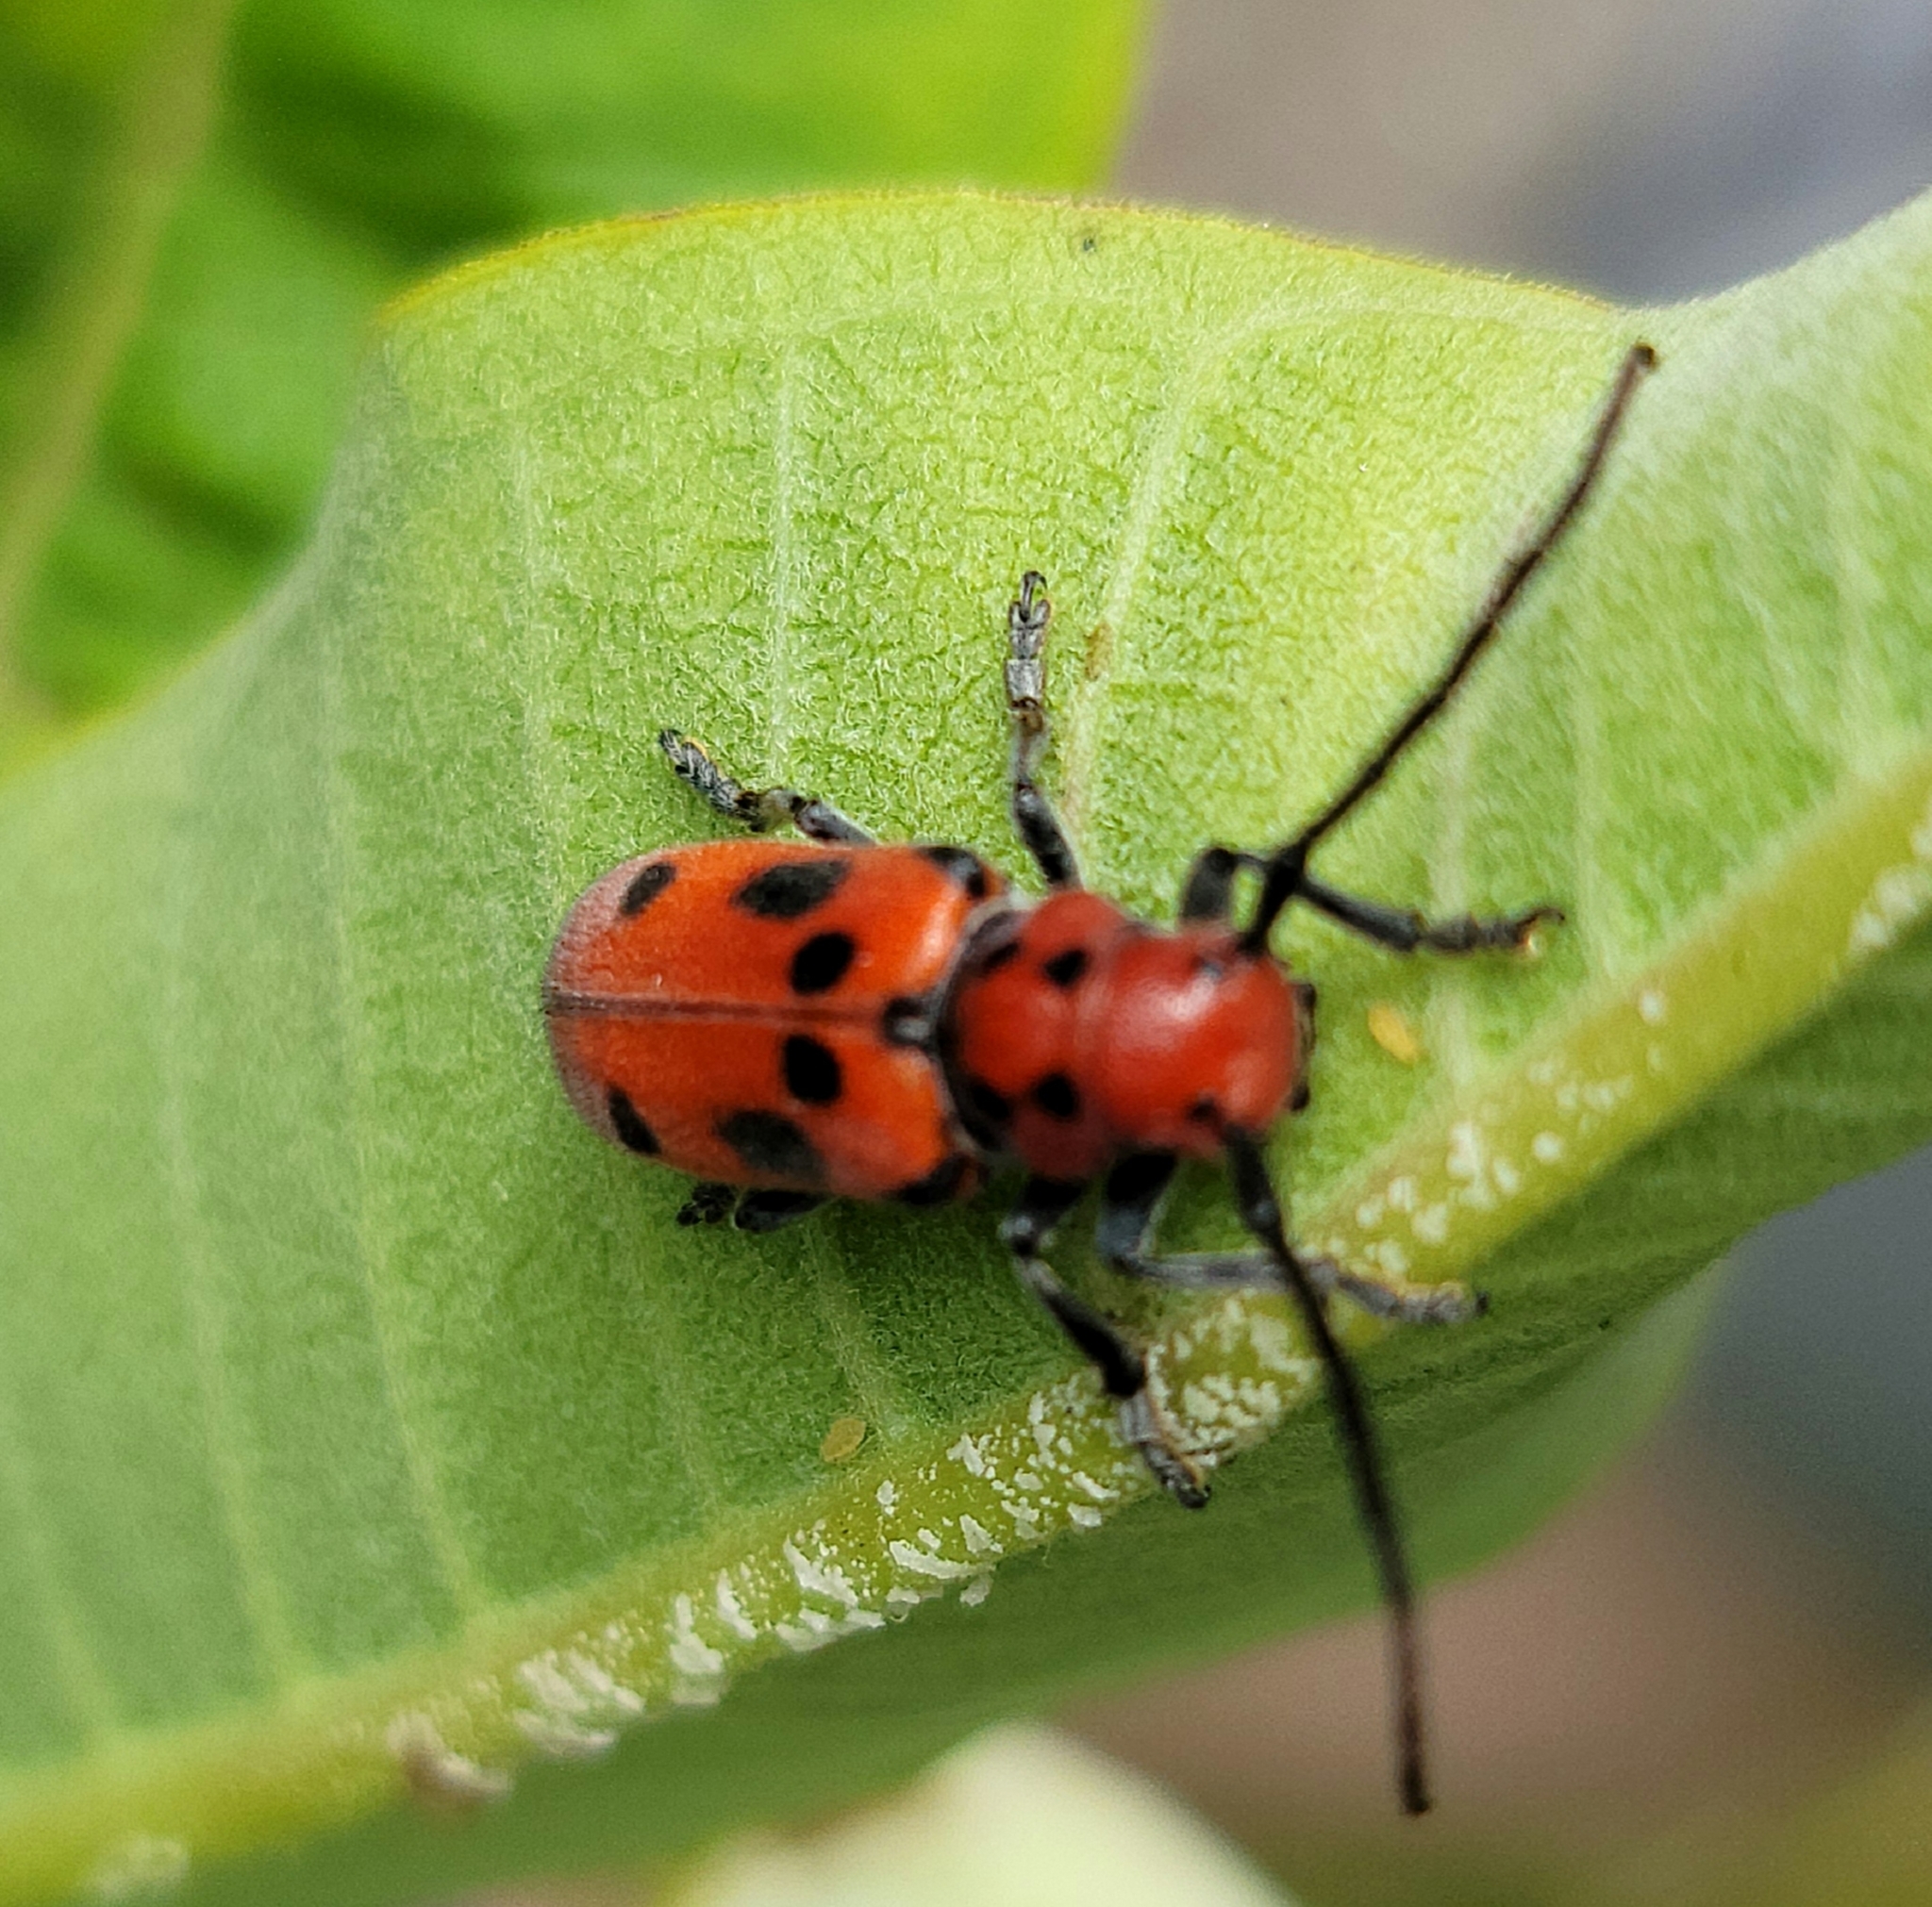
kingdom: Animalia
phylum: Arthropoda
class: Insecta
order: Coleoptera
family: Cerambycidae
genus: Tetraopes
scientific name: Tetraopes tetrophthalmus
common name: Red milkweed beetle
